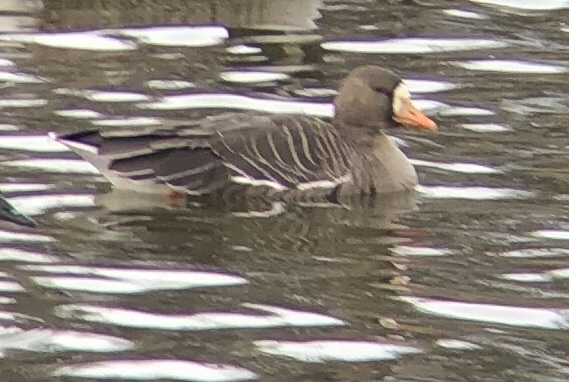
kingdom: Animalia
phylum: Chordata
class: Aves
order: Anseriformes
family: Anatidae
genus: Anser
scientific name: Anser albifrons
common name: Greater white-fronted goose
